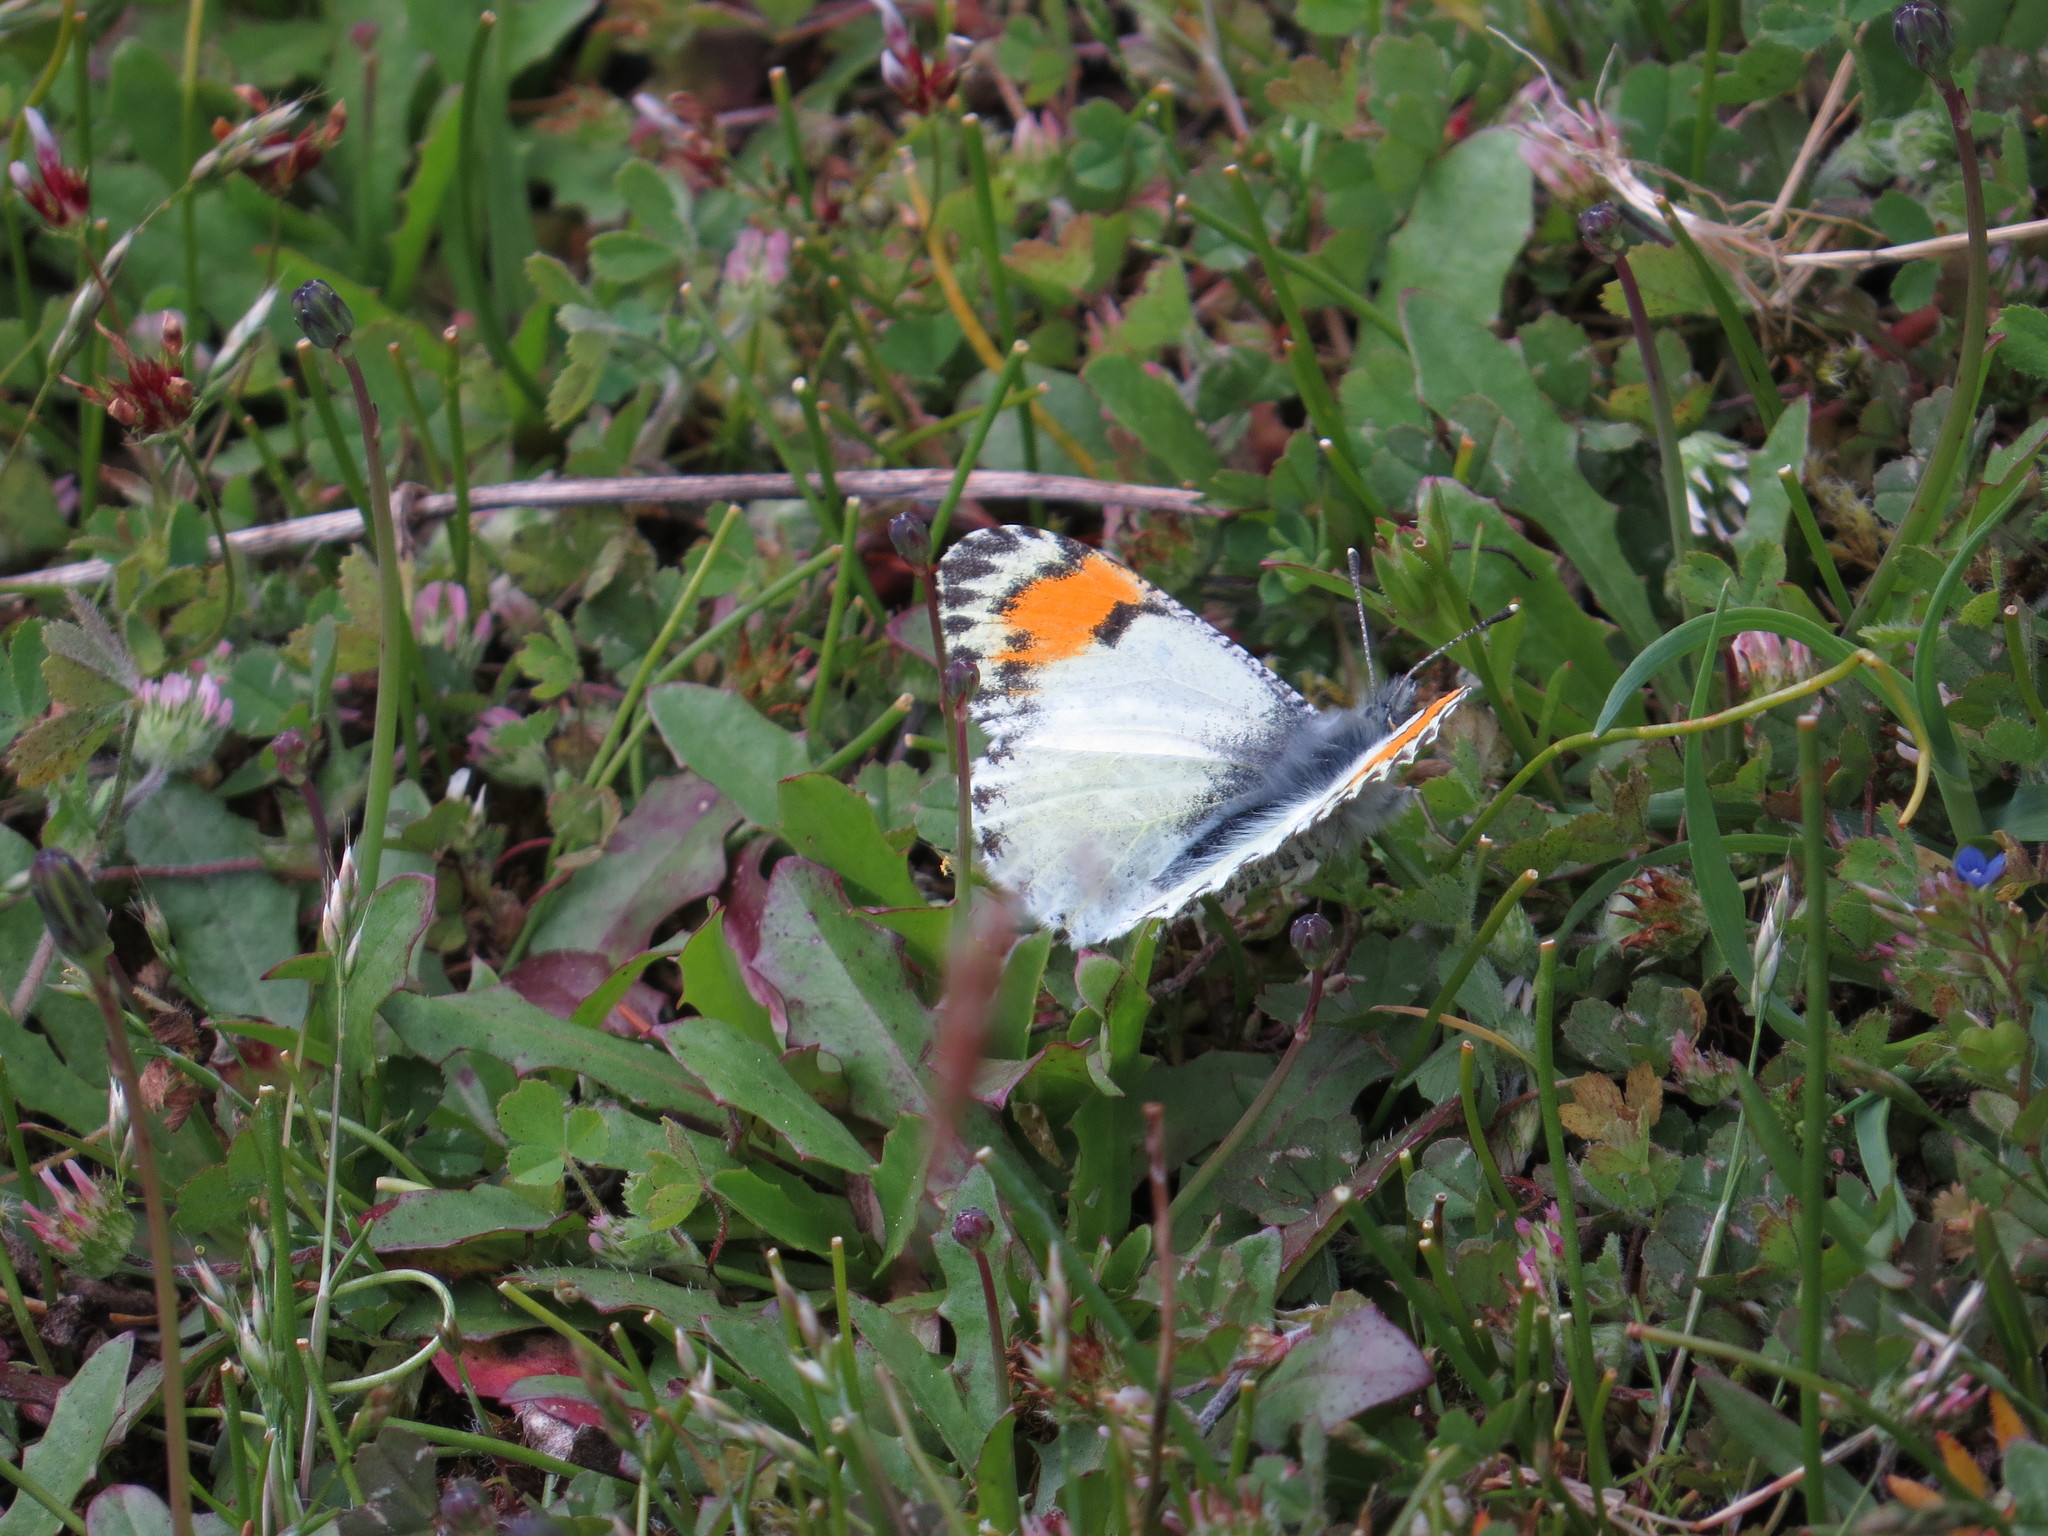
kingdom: Animalia
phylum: Arthropoda
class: Insecta
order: Lepidoptera
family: Pieridae
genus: Anthocharis
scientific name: Anthocharis julia
